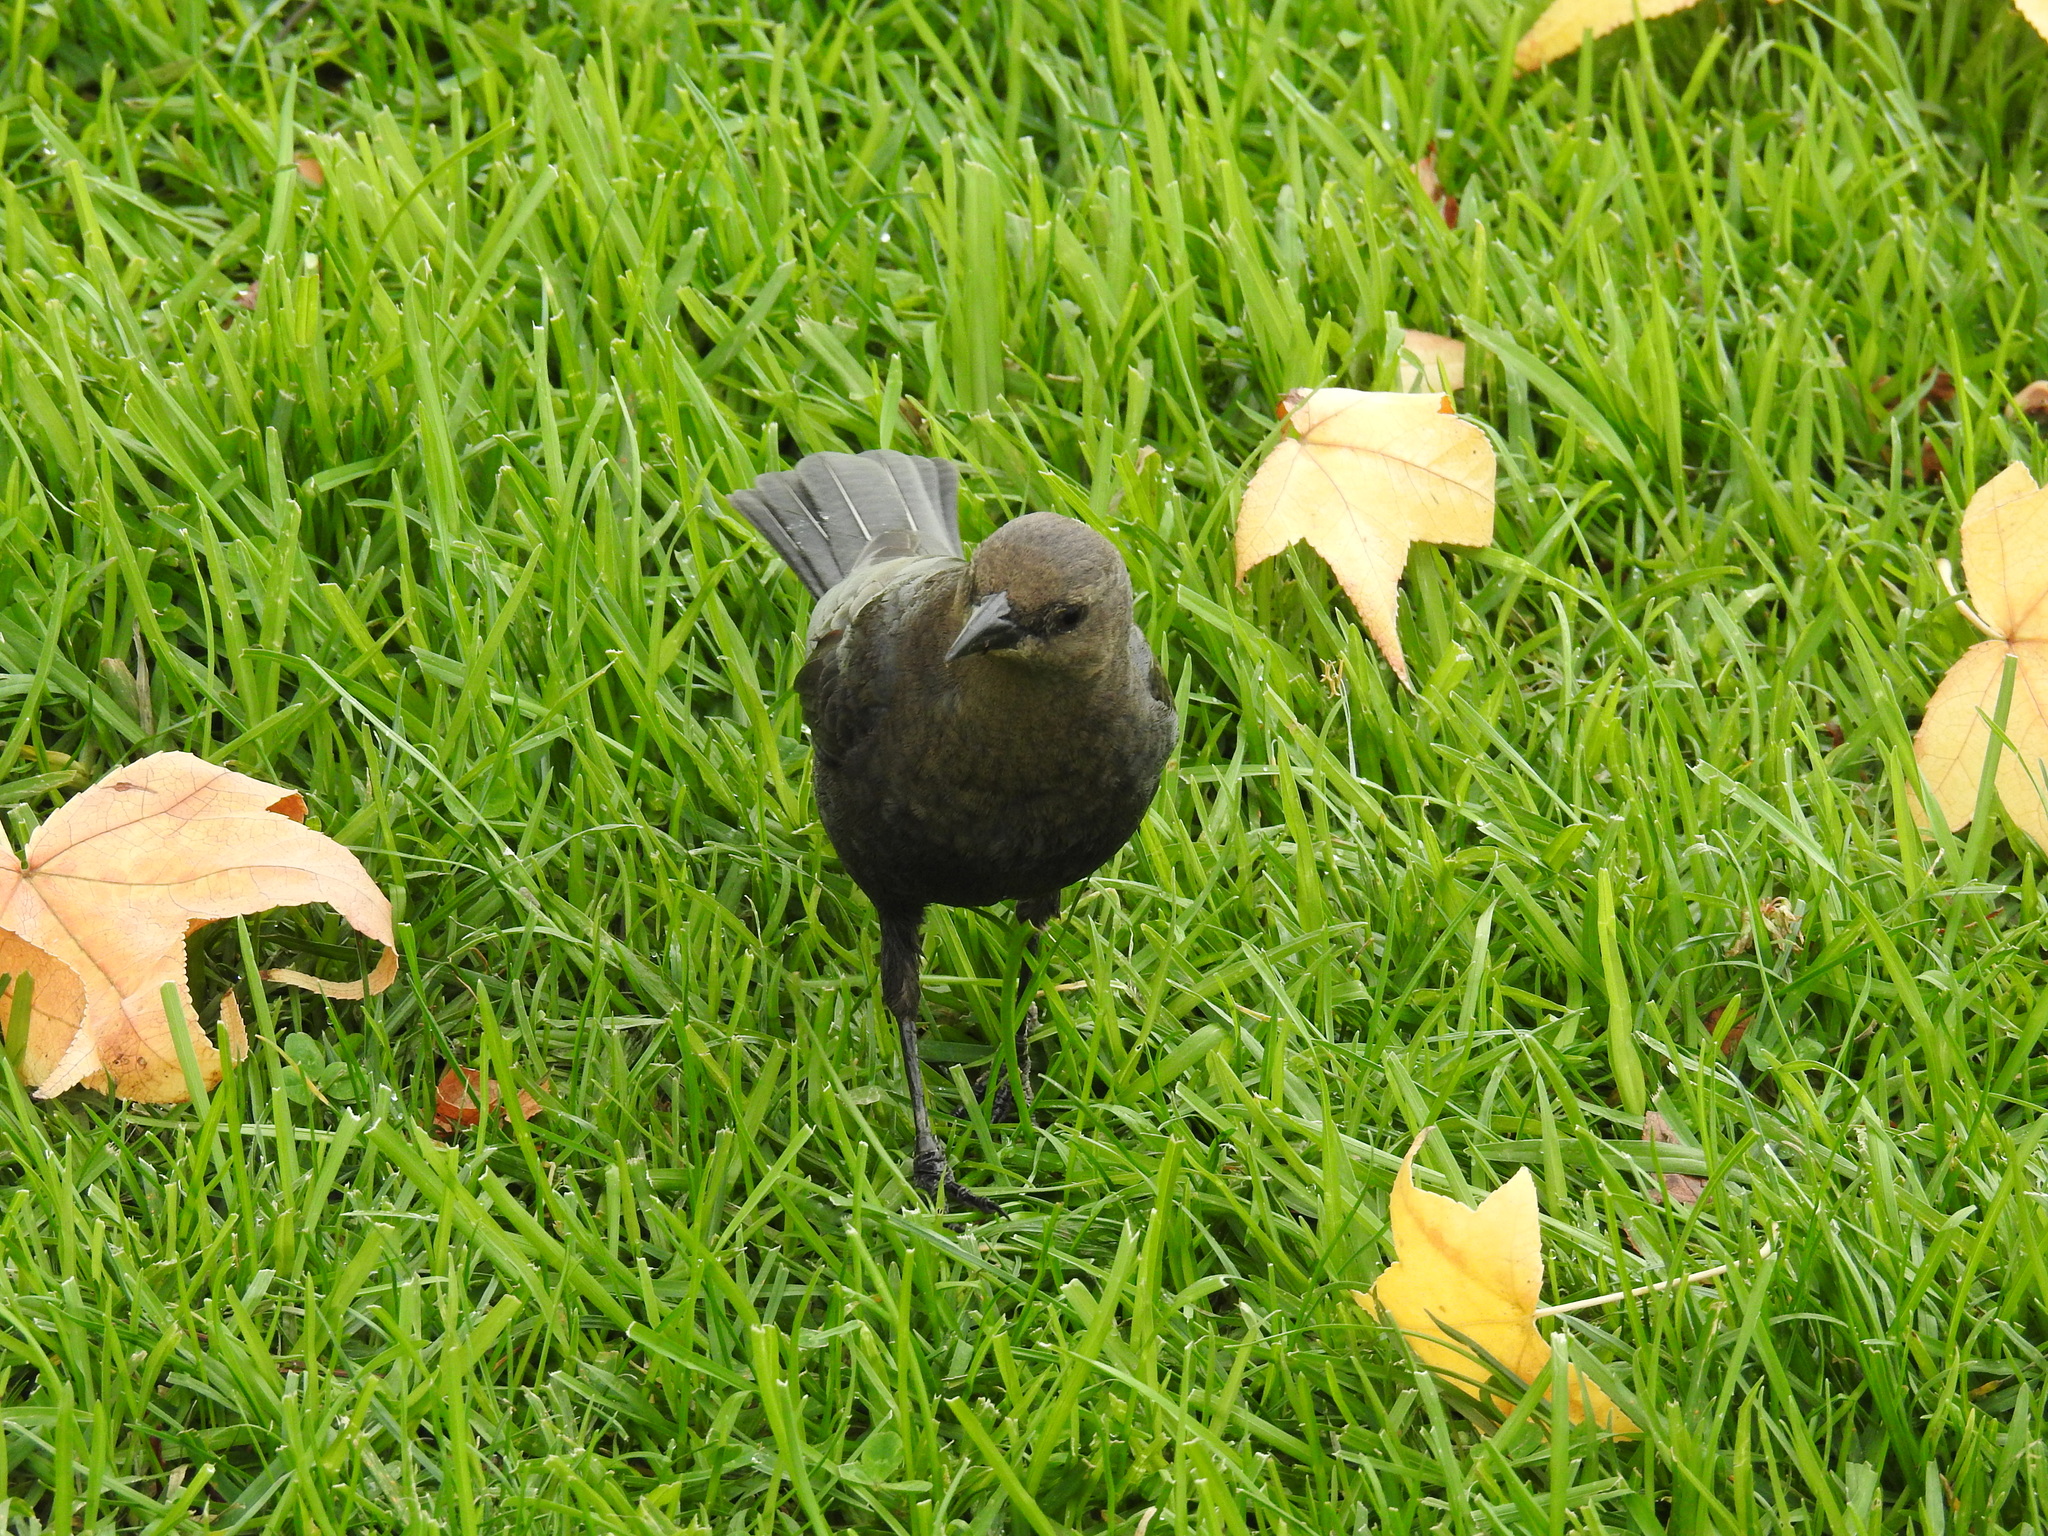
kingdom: Animalia
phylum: Chordata
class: Aves
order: Passeriformes
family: Icteridae
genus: Euphagus
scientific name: Euphagus cyanocephalus
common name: Brewer's blackbird
